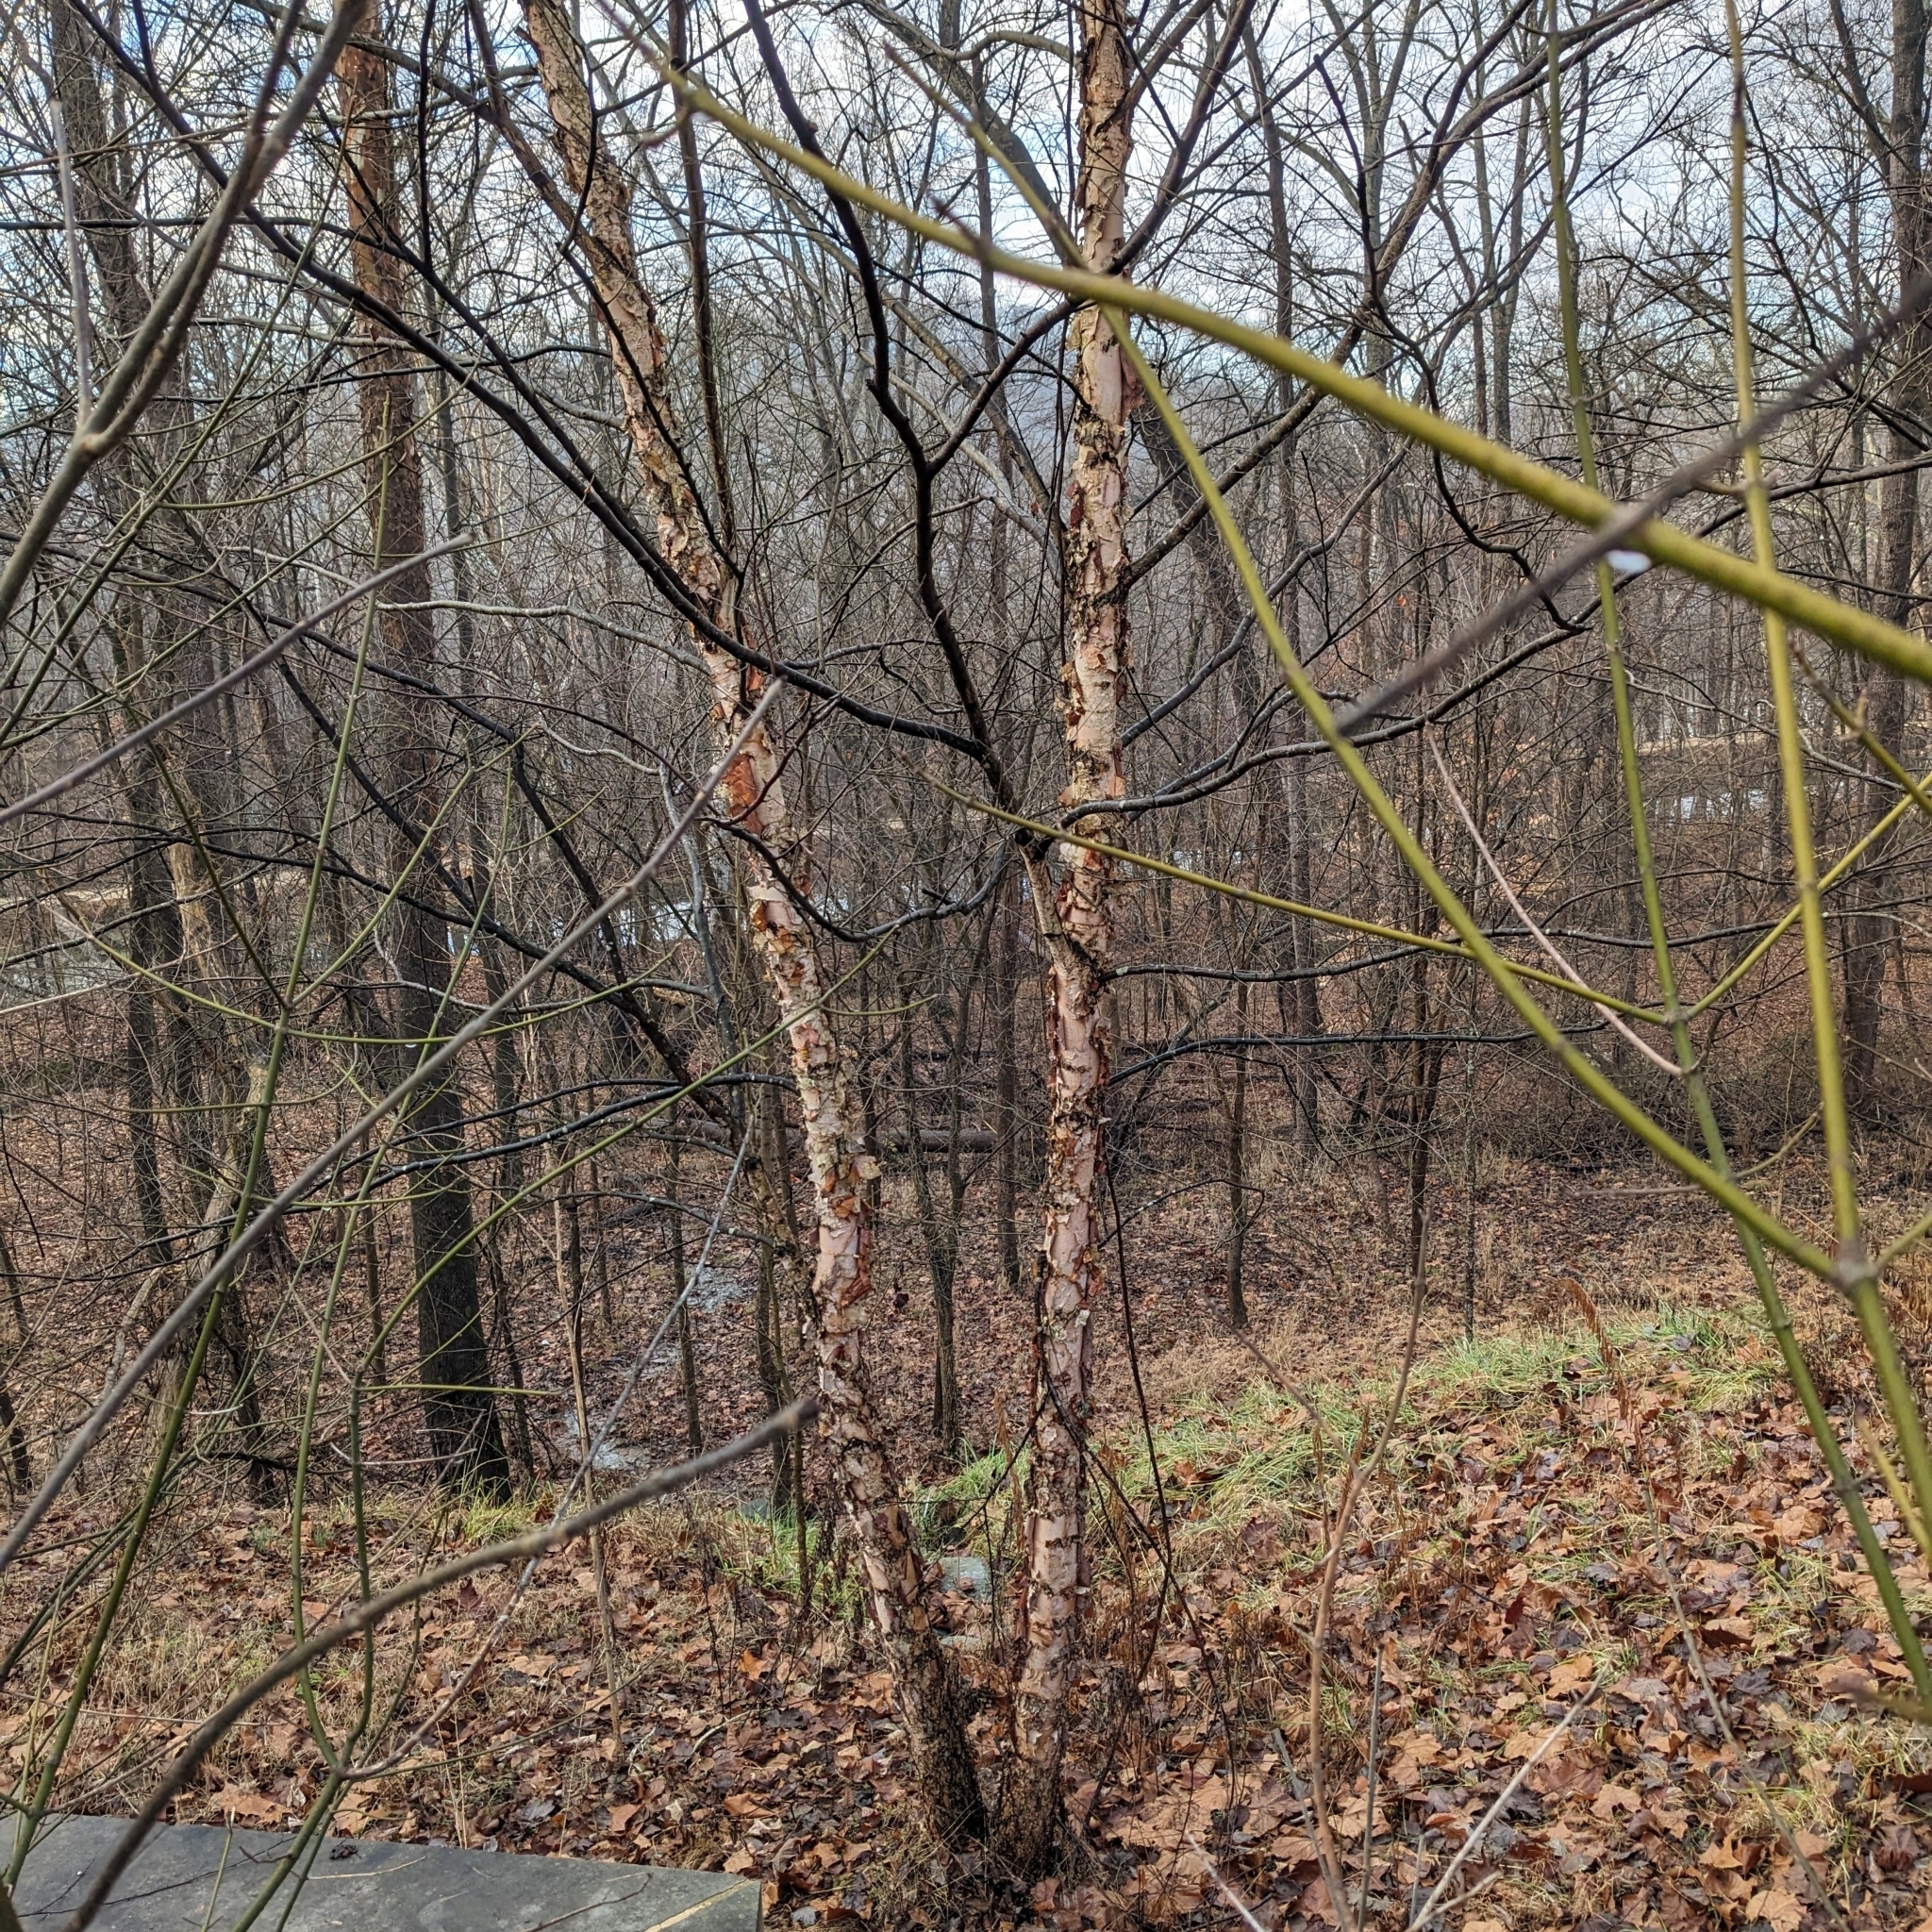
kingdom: Plantae
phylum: Tracheophyta
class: Magnoliopsida
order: Fagales
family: Betulaceae
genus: Betula
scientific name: Betula nigra
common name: Black birch
